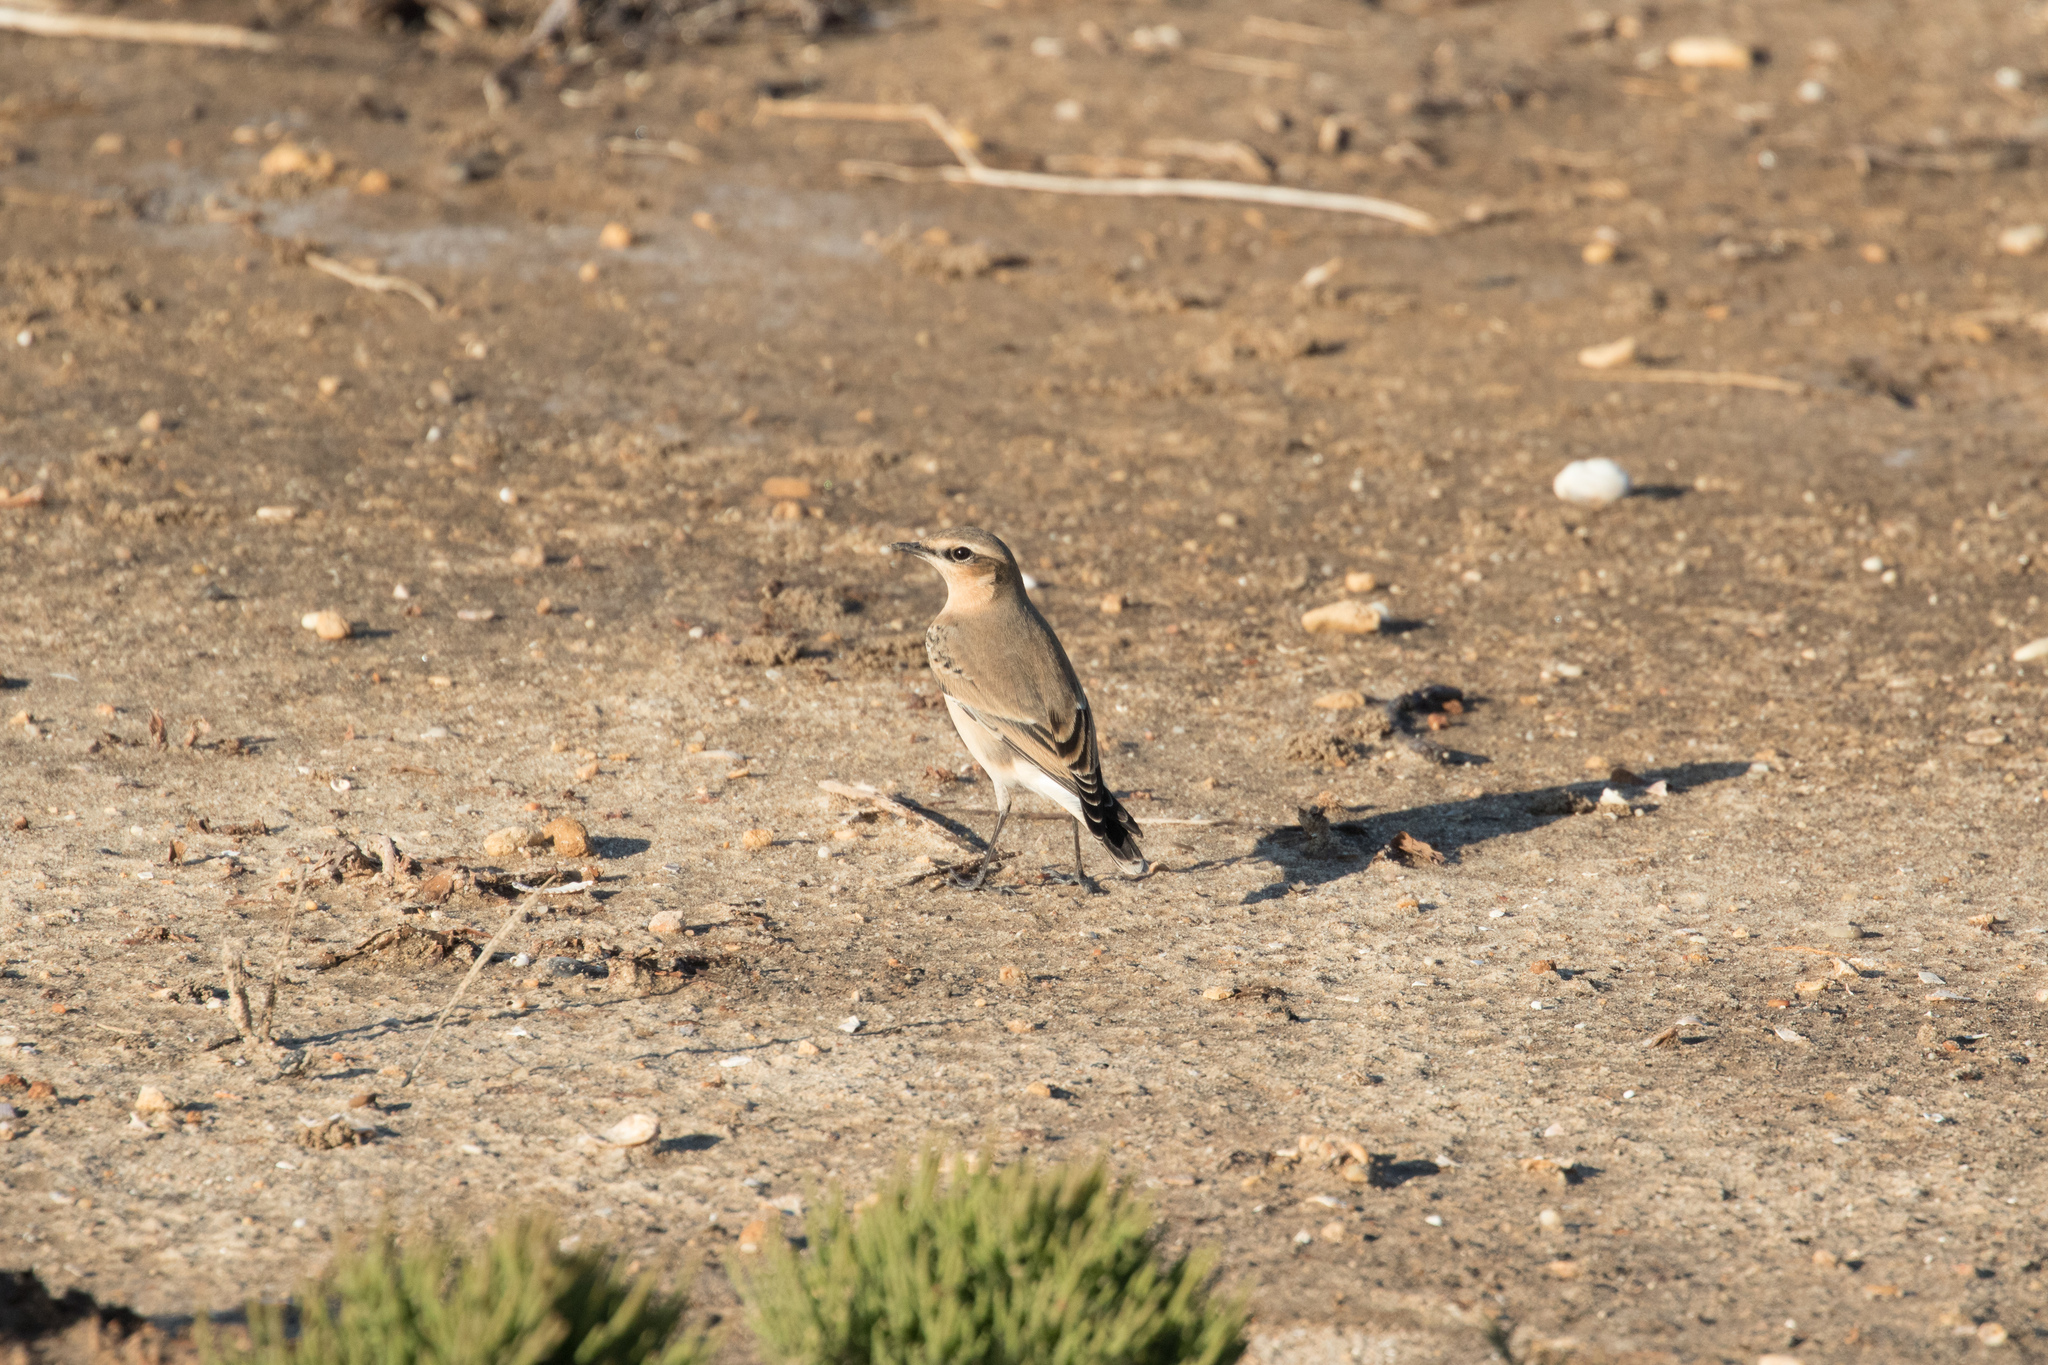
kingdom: Animalia
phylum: Chordata
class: Aves
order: Passeriformes
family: Muscicapidae
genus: Oenanthe
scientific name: Oenanthe oenanthe
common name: Northern wheatear
